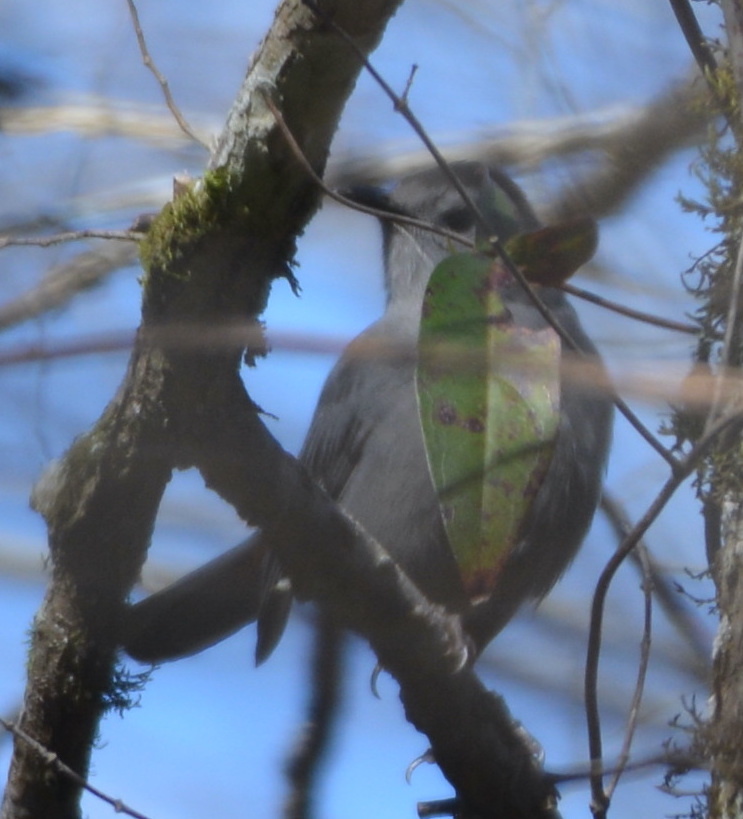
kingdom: Animalia
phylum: Chordata
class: Aves
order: Passeriformes
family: Mimidae
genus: Dumetella
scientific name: Dumetella carolinensis
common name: Gray catbird
